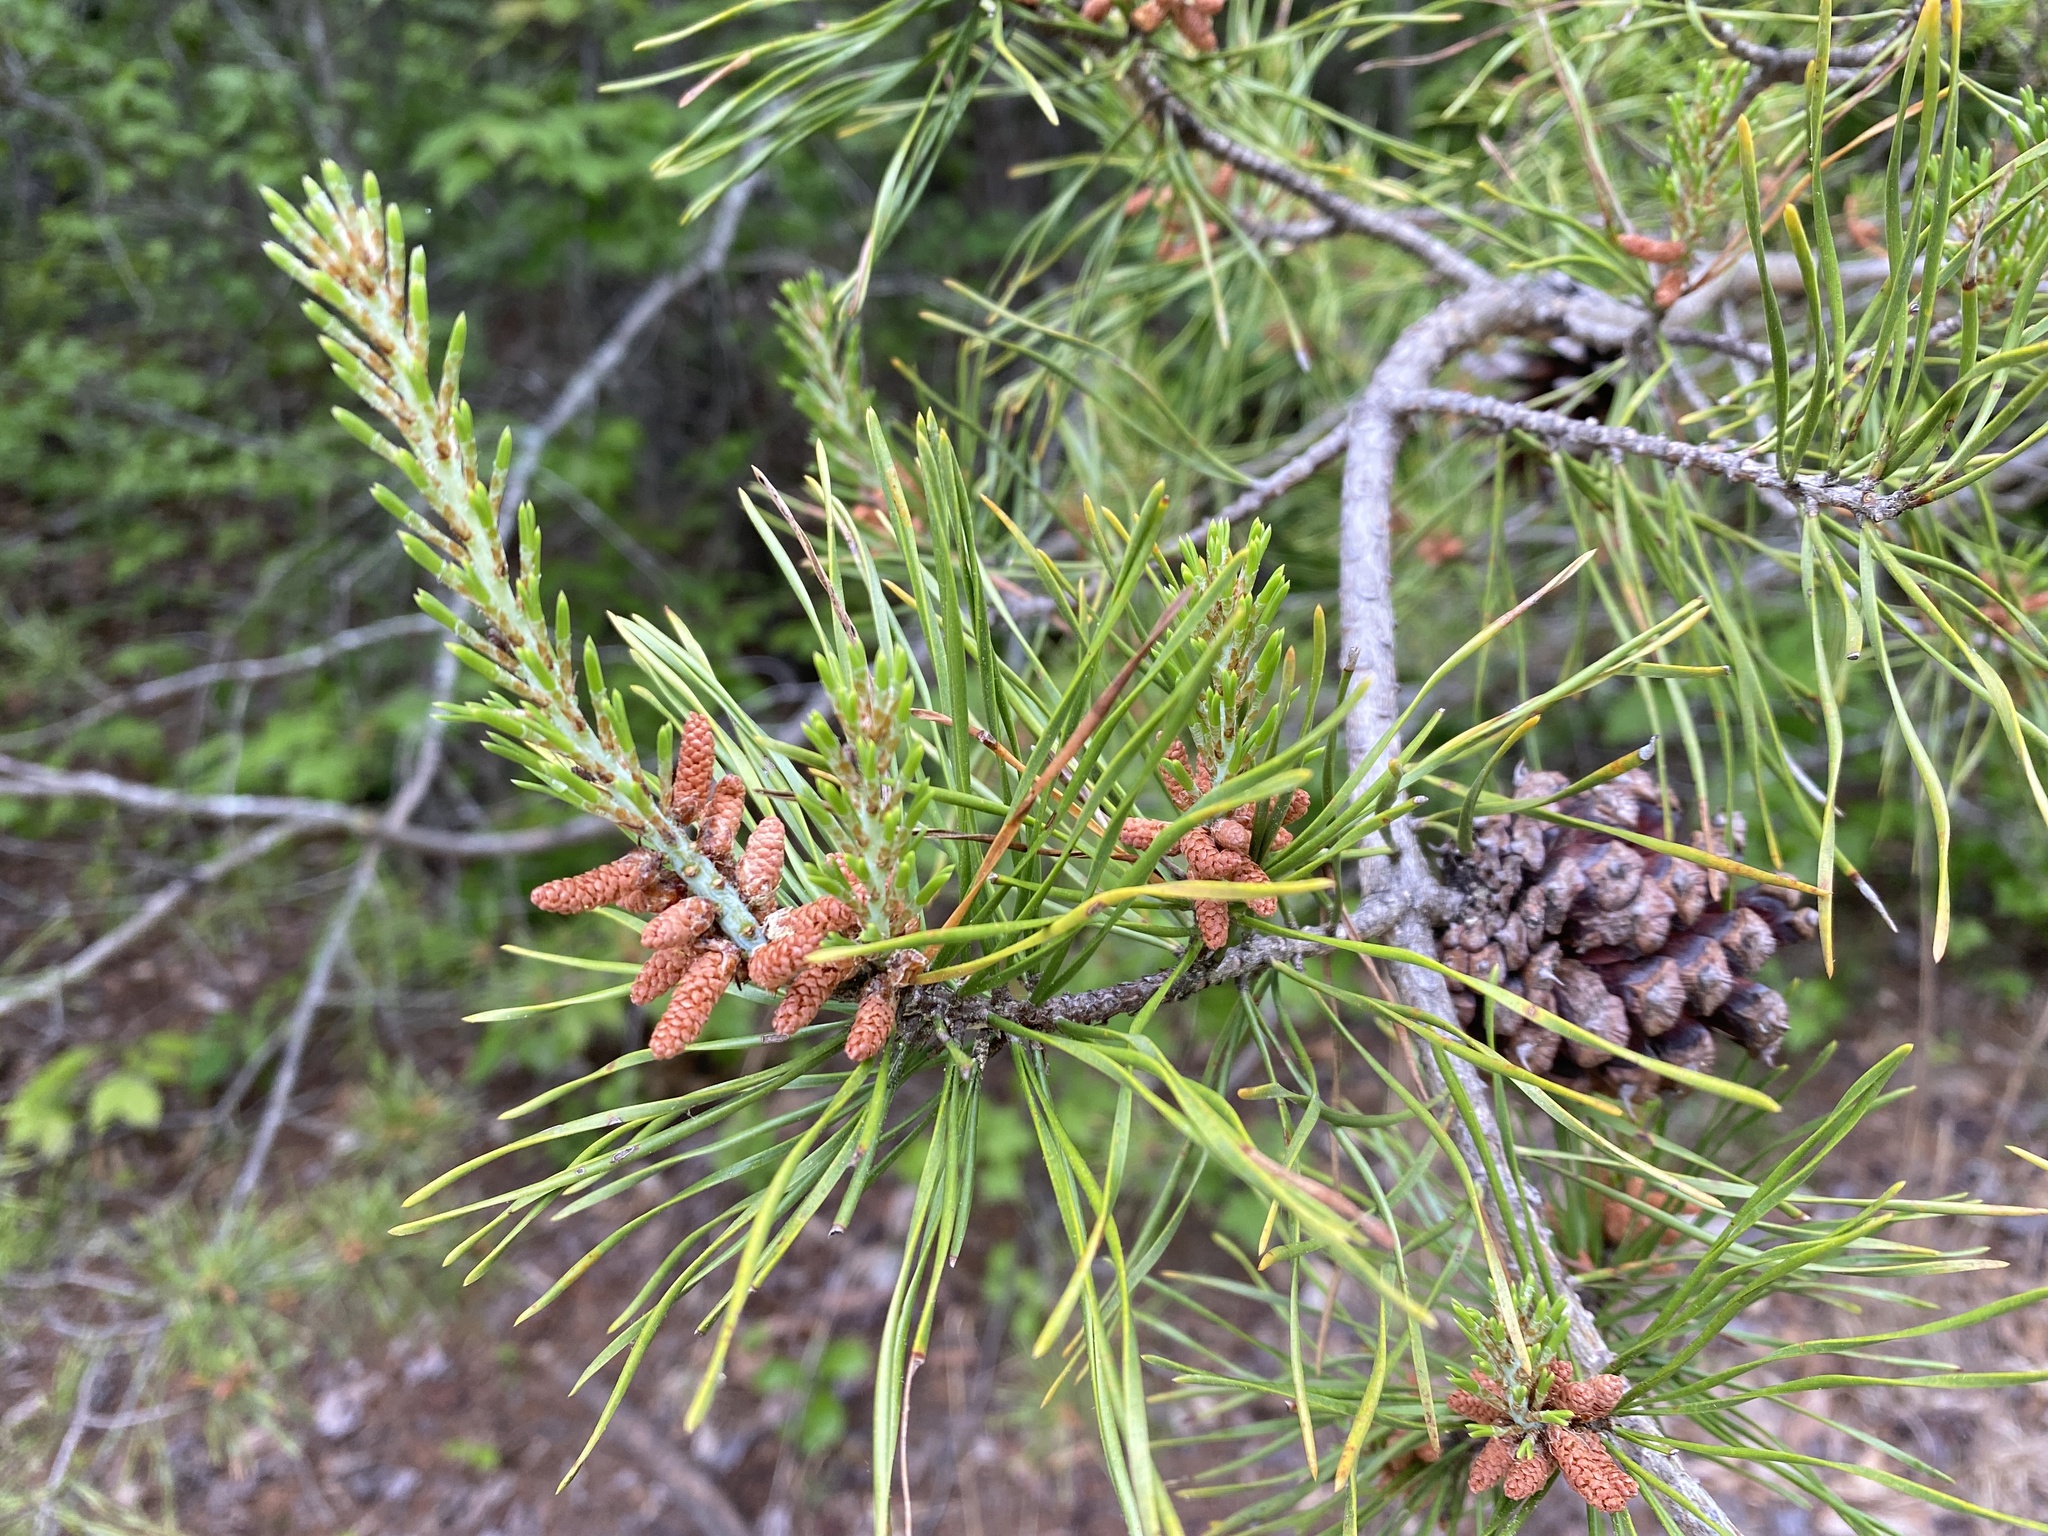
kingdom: Plantae
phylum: Tracheophyta
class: Pinopsida
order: Pinales
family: Pinaceae
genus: Pinus
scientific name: Pinus virginiana
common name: Scrub pine
